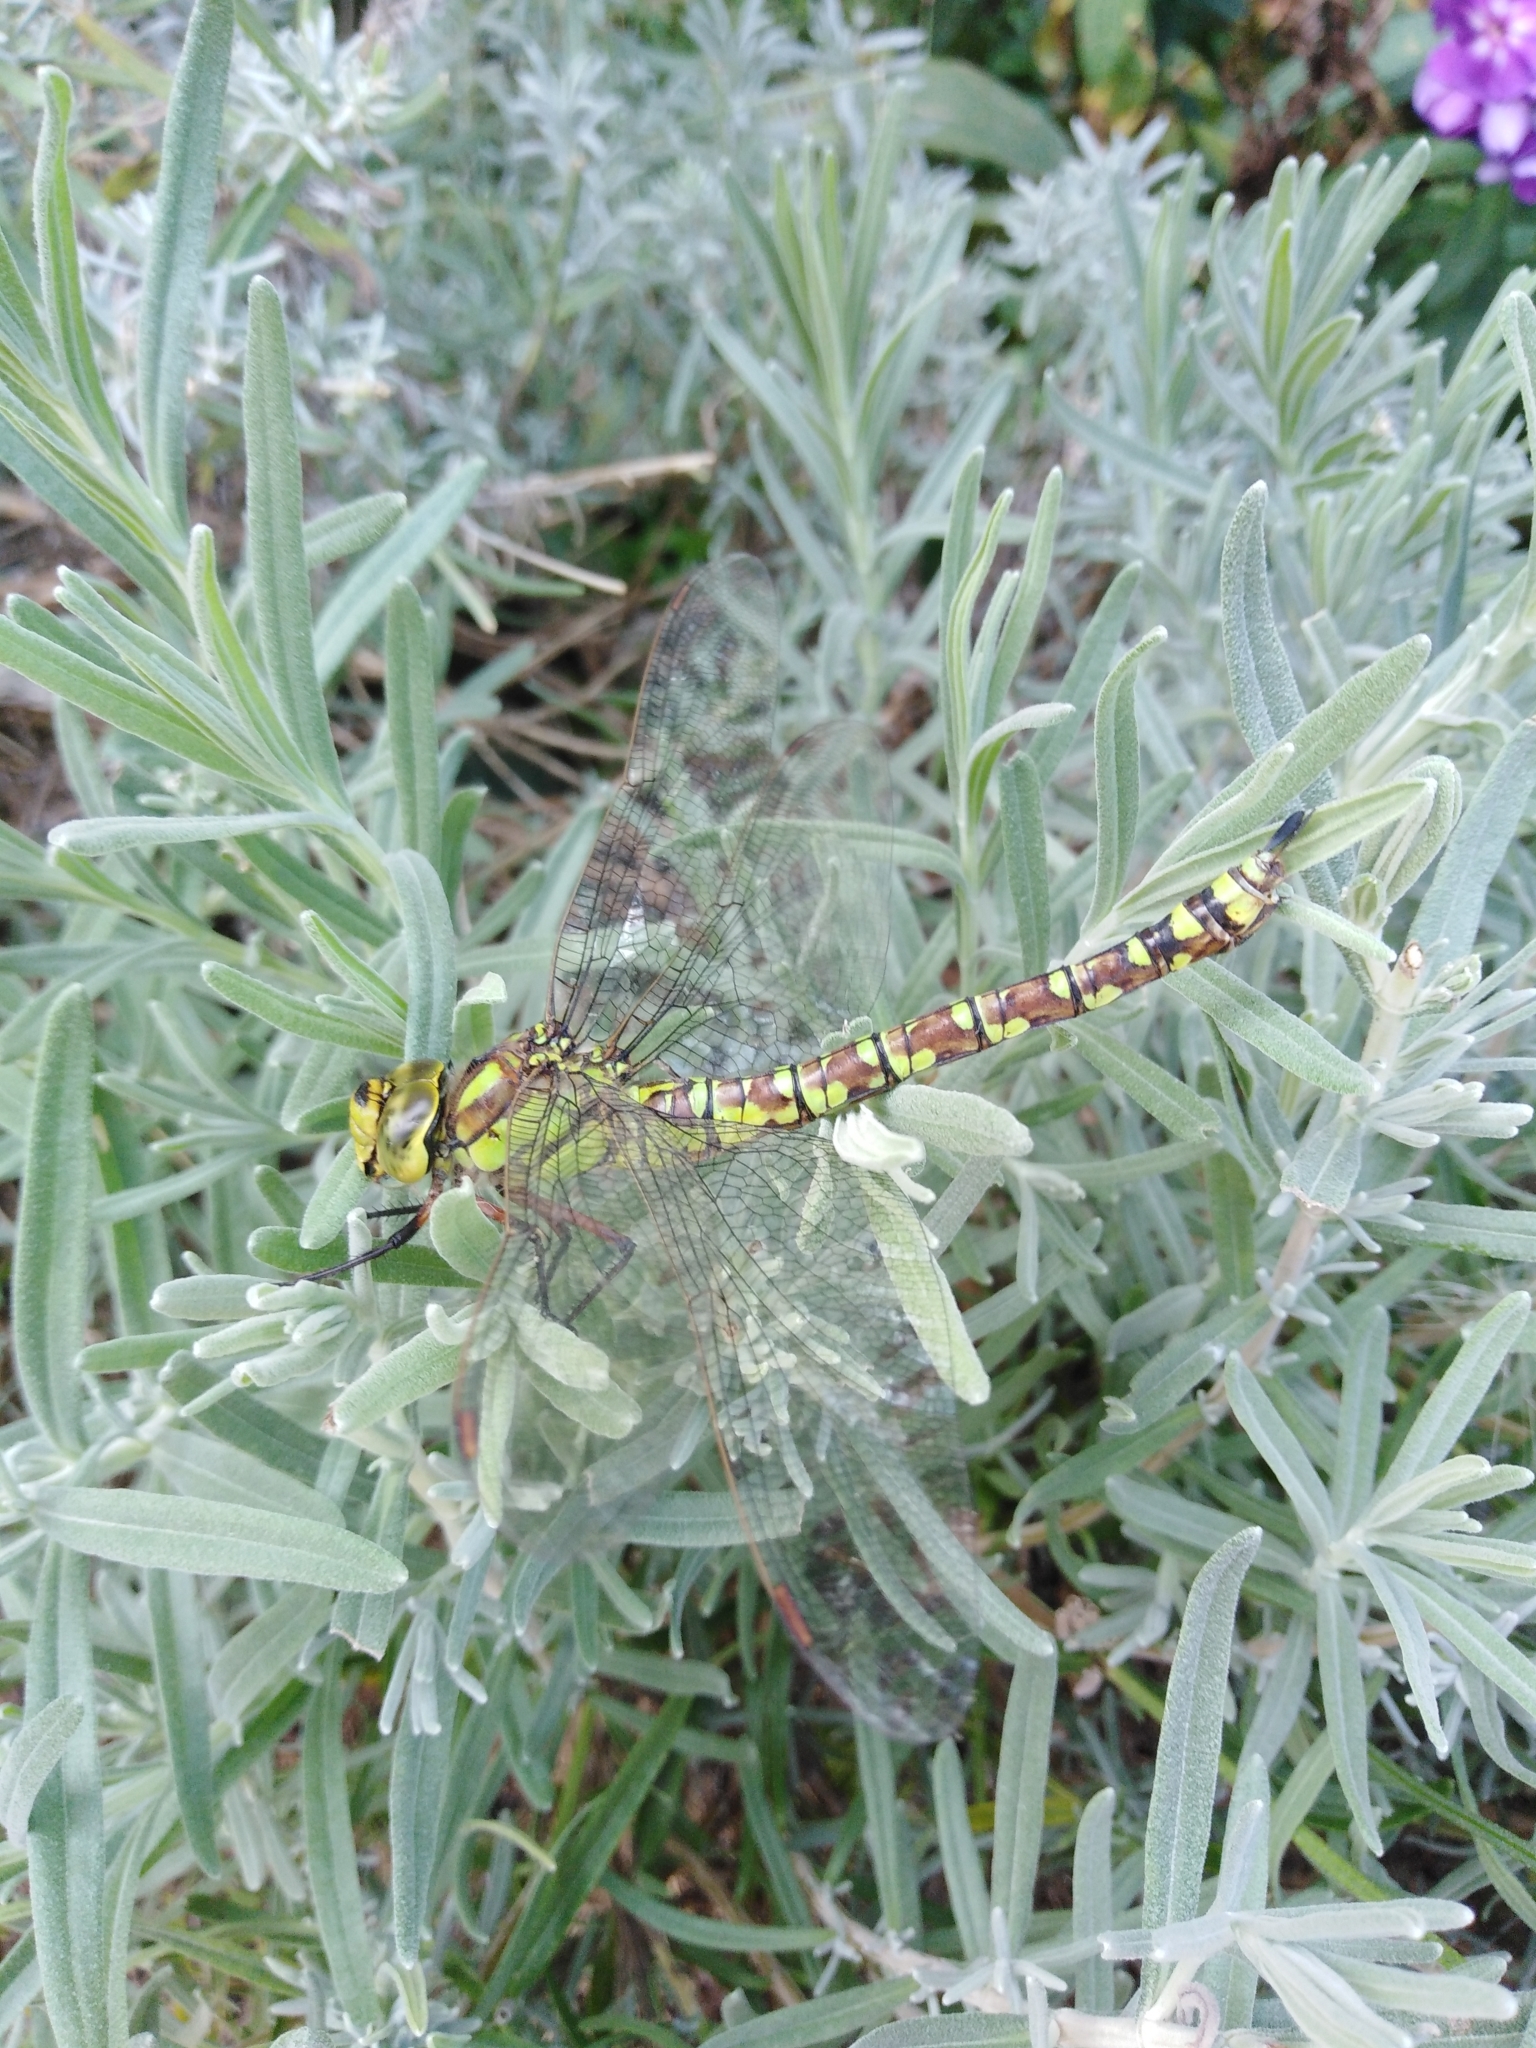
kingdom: Animalia
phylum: Arthropoda
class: Insecta
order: Odonata
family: Aeshnidae
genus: Aeshna
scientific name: Aeshna cyanea
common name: Southern hawker
